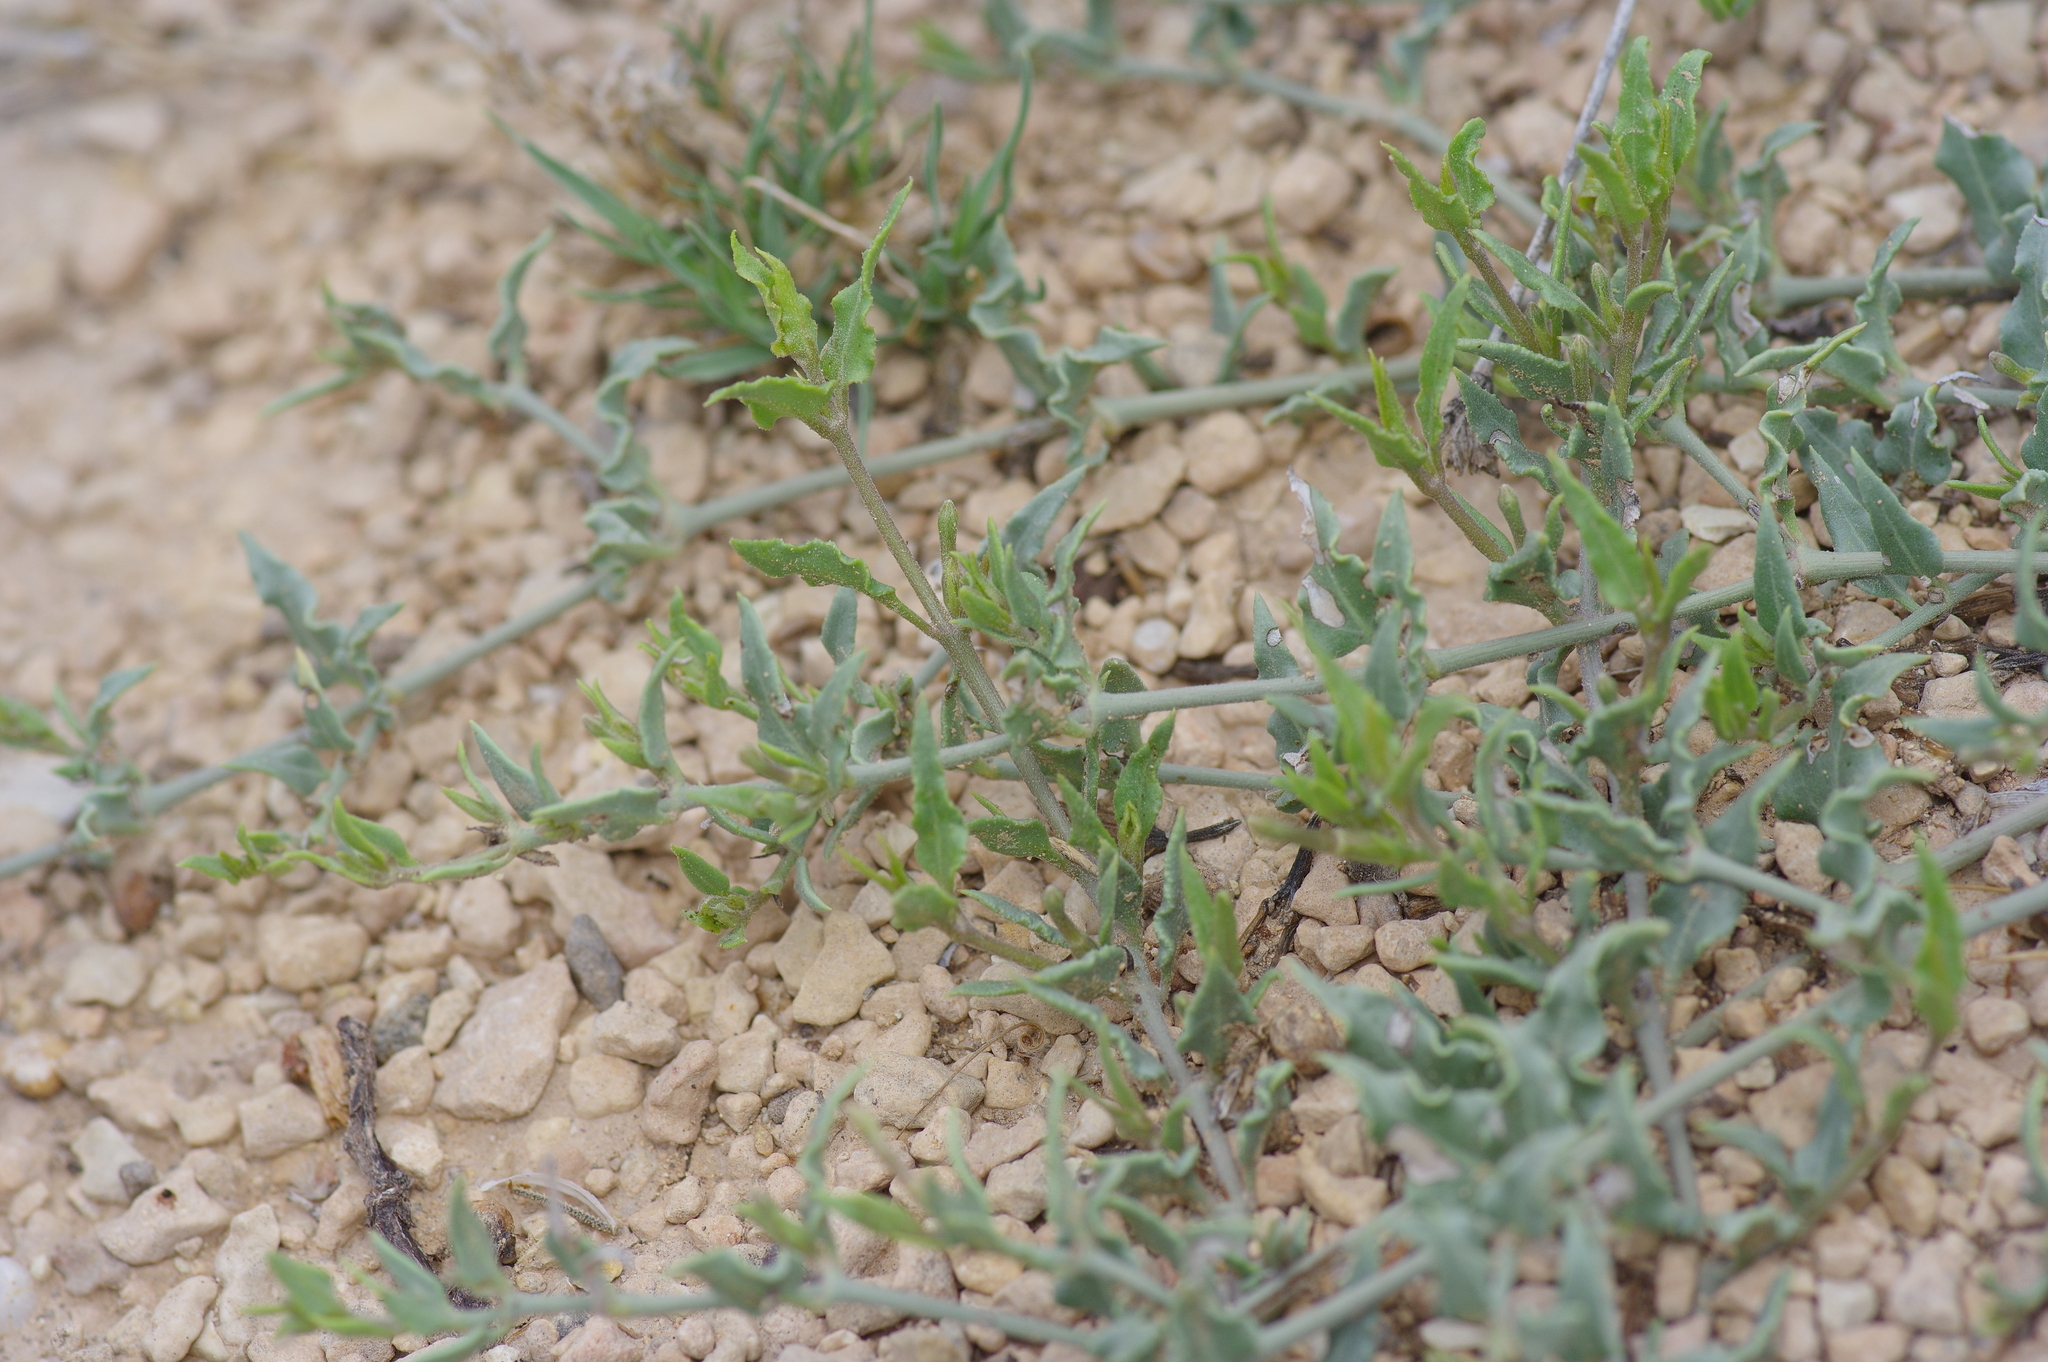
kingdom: Plantae
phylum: Tracheophyta
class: Magnoliopsida
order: Caryophyllales
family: Nyctaginaceae
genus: Acleisanthes
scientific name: Acleisanthes longiflora
